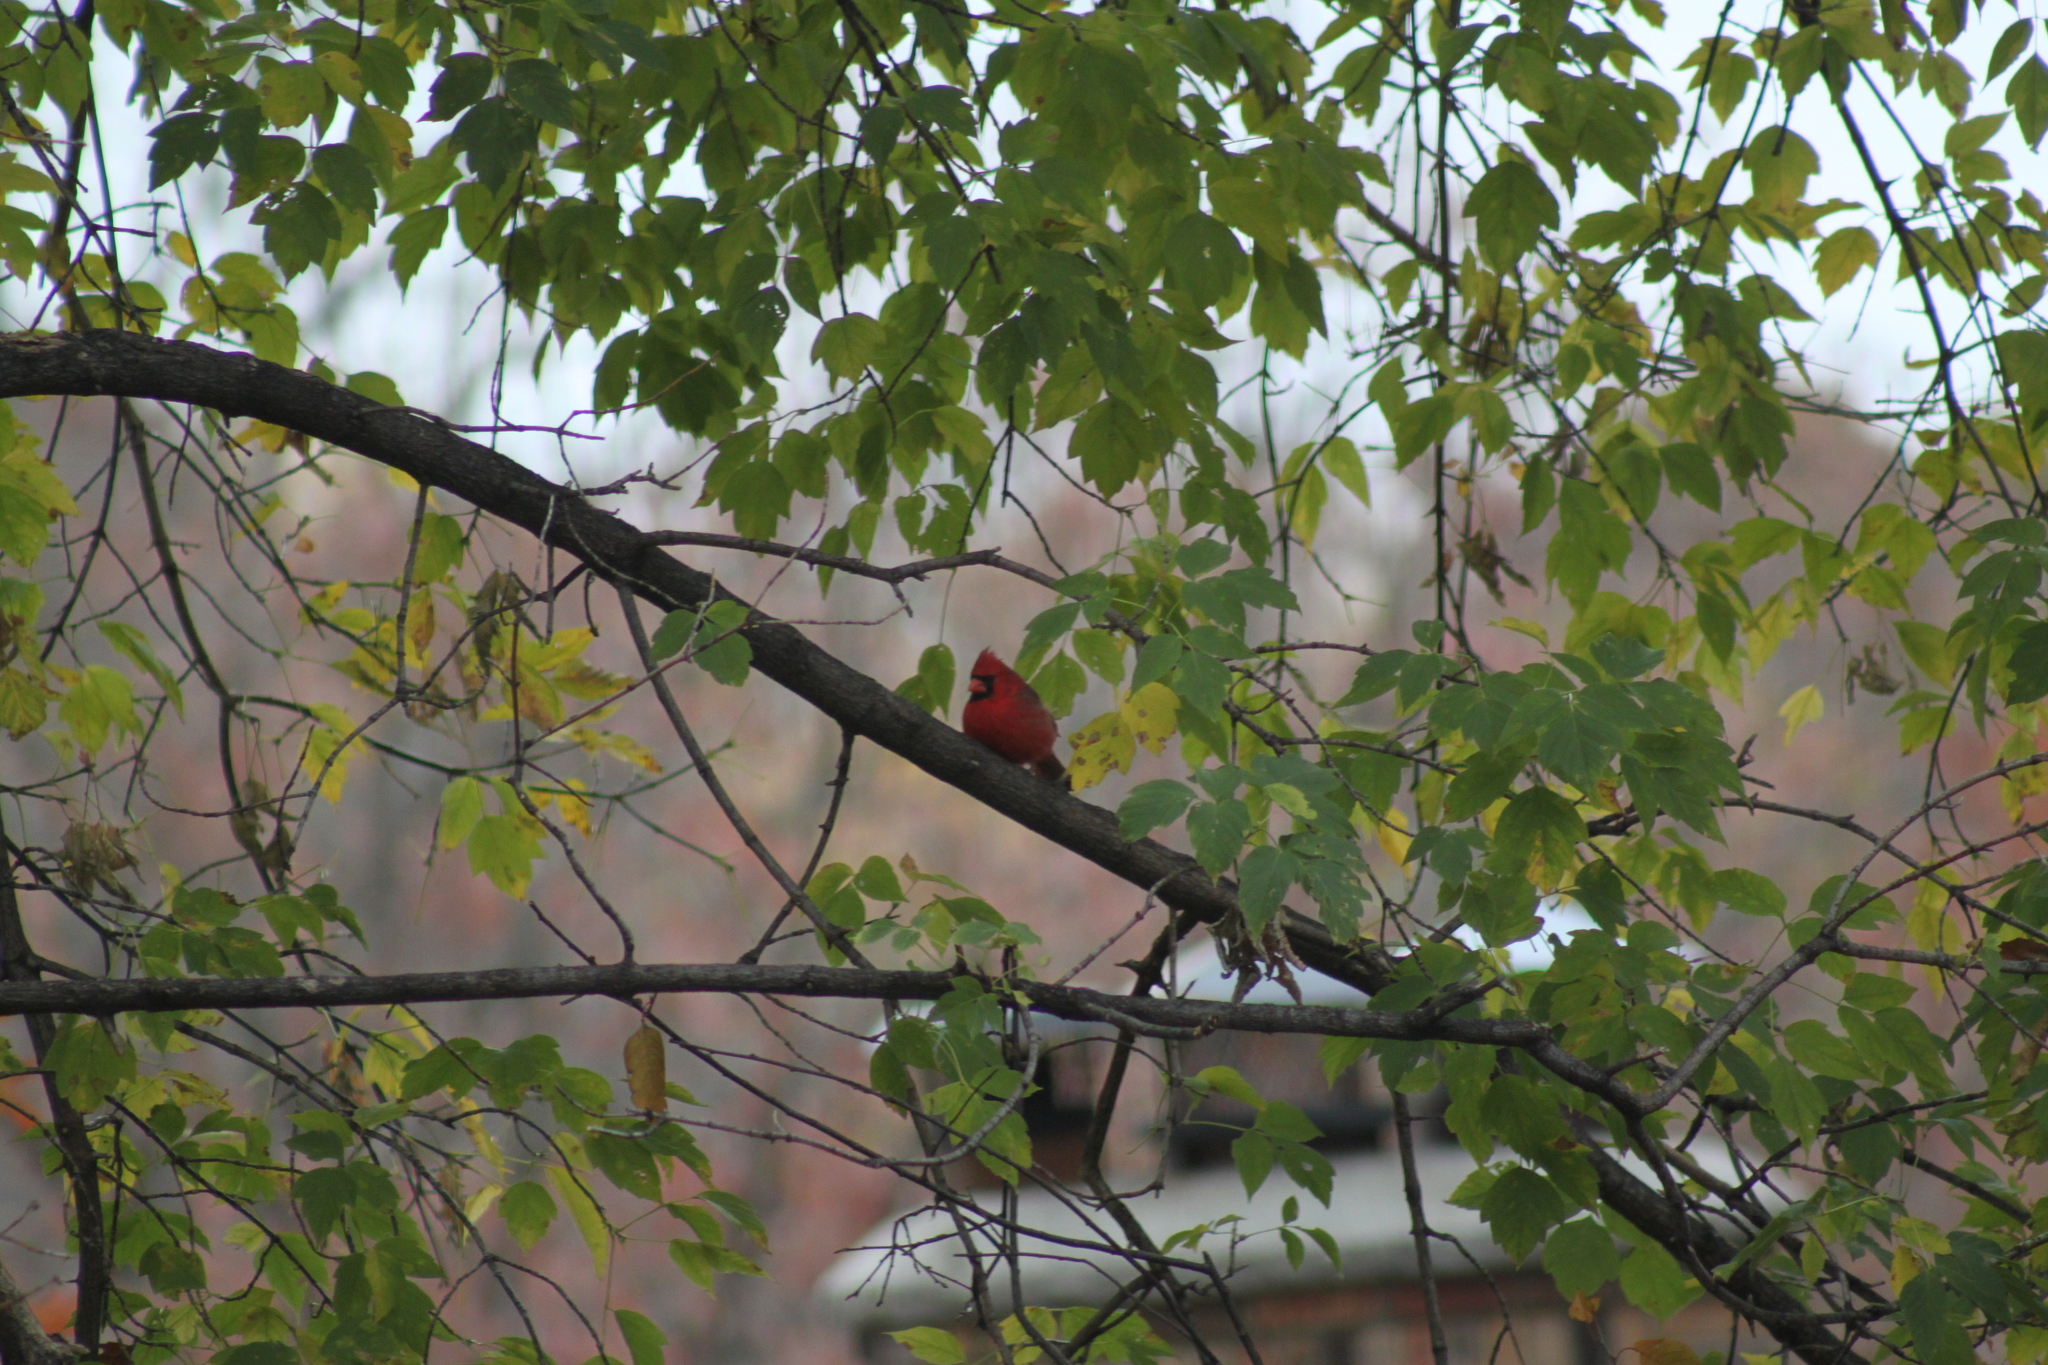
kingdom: Animalia
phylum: Chordata
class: Aves
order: Passeriformes
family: Cardinalidae
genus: Cardinalis
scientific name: Cardinalis cardinalis
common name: Northern cardinal
